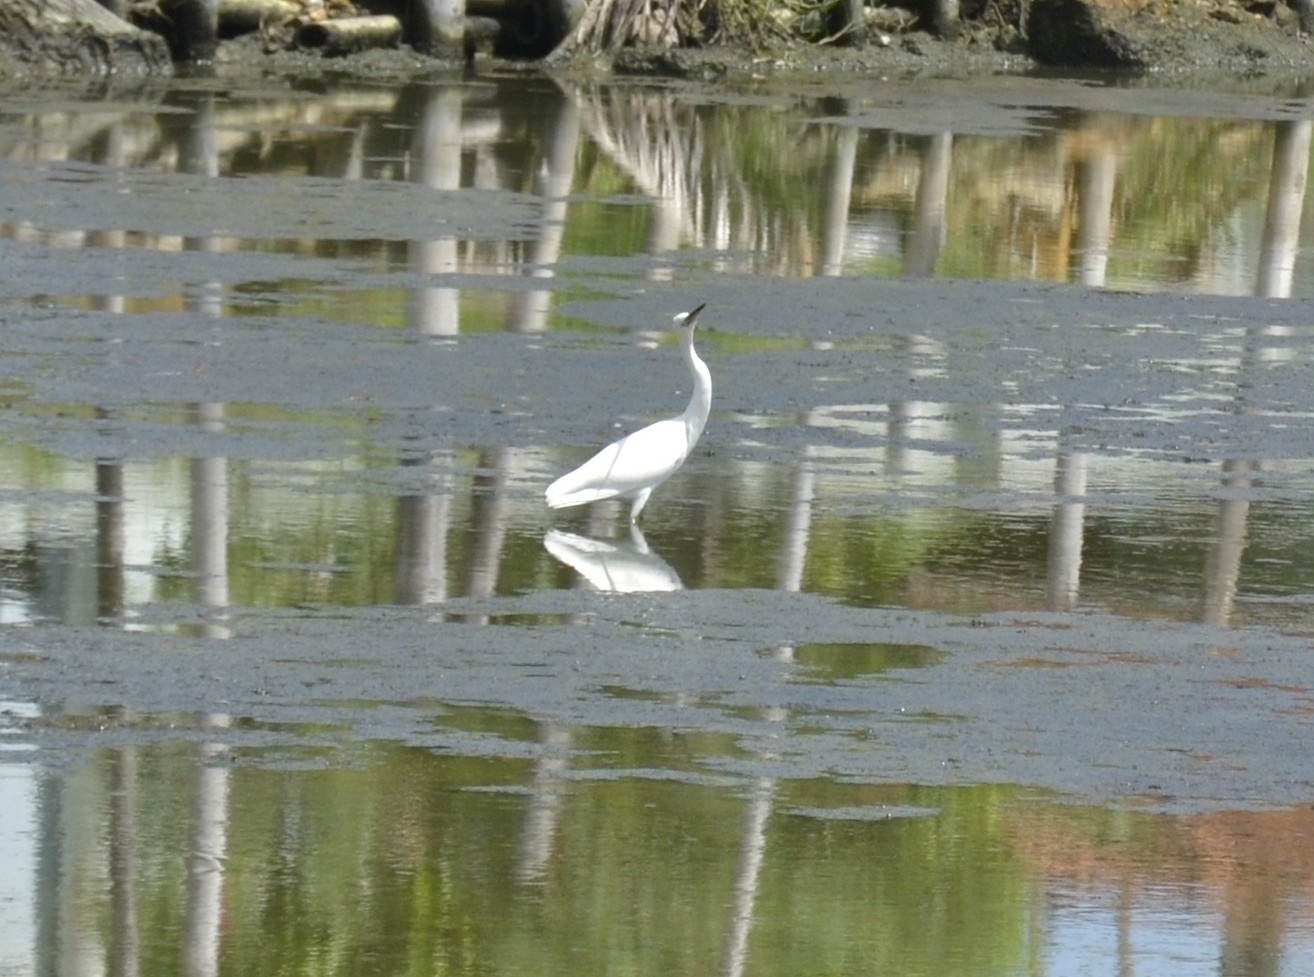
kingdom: Animalia
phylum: Chordata
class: Aves
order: Pelecaniformes
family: Ardeidae
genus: Egretta
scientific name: Egretta garzetta
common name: Little egret
